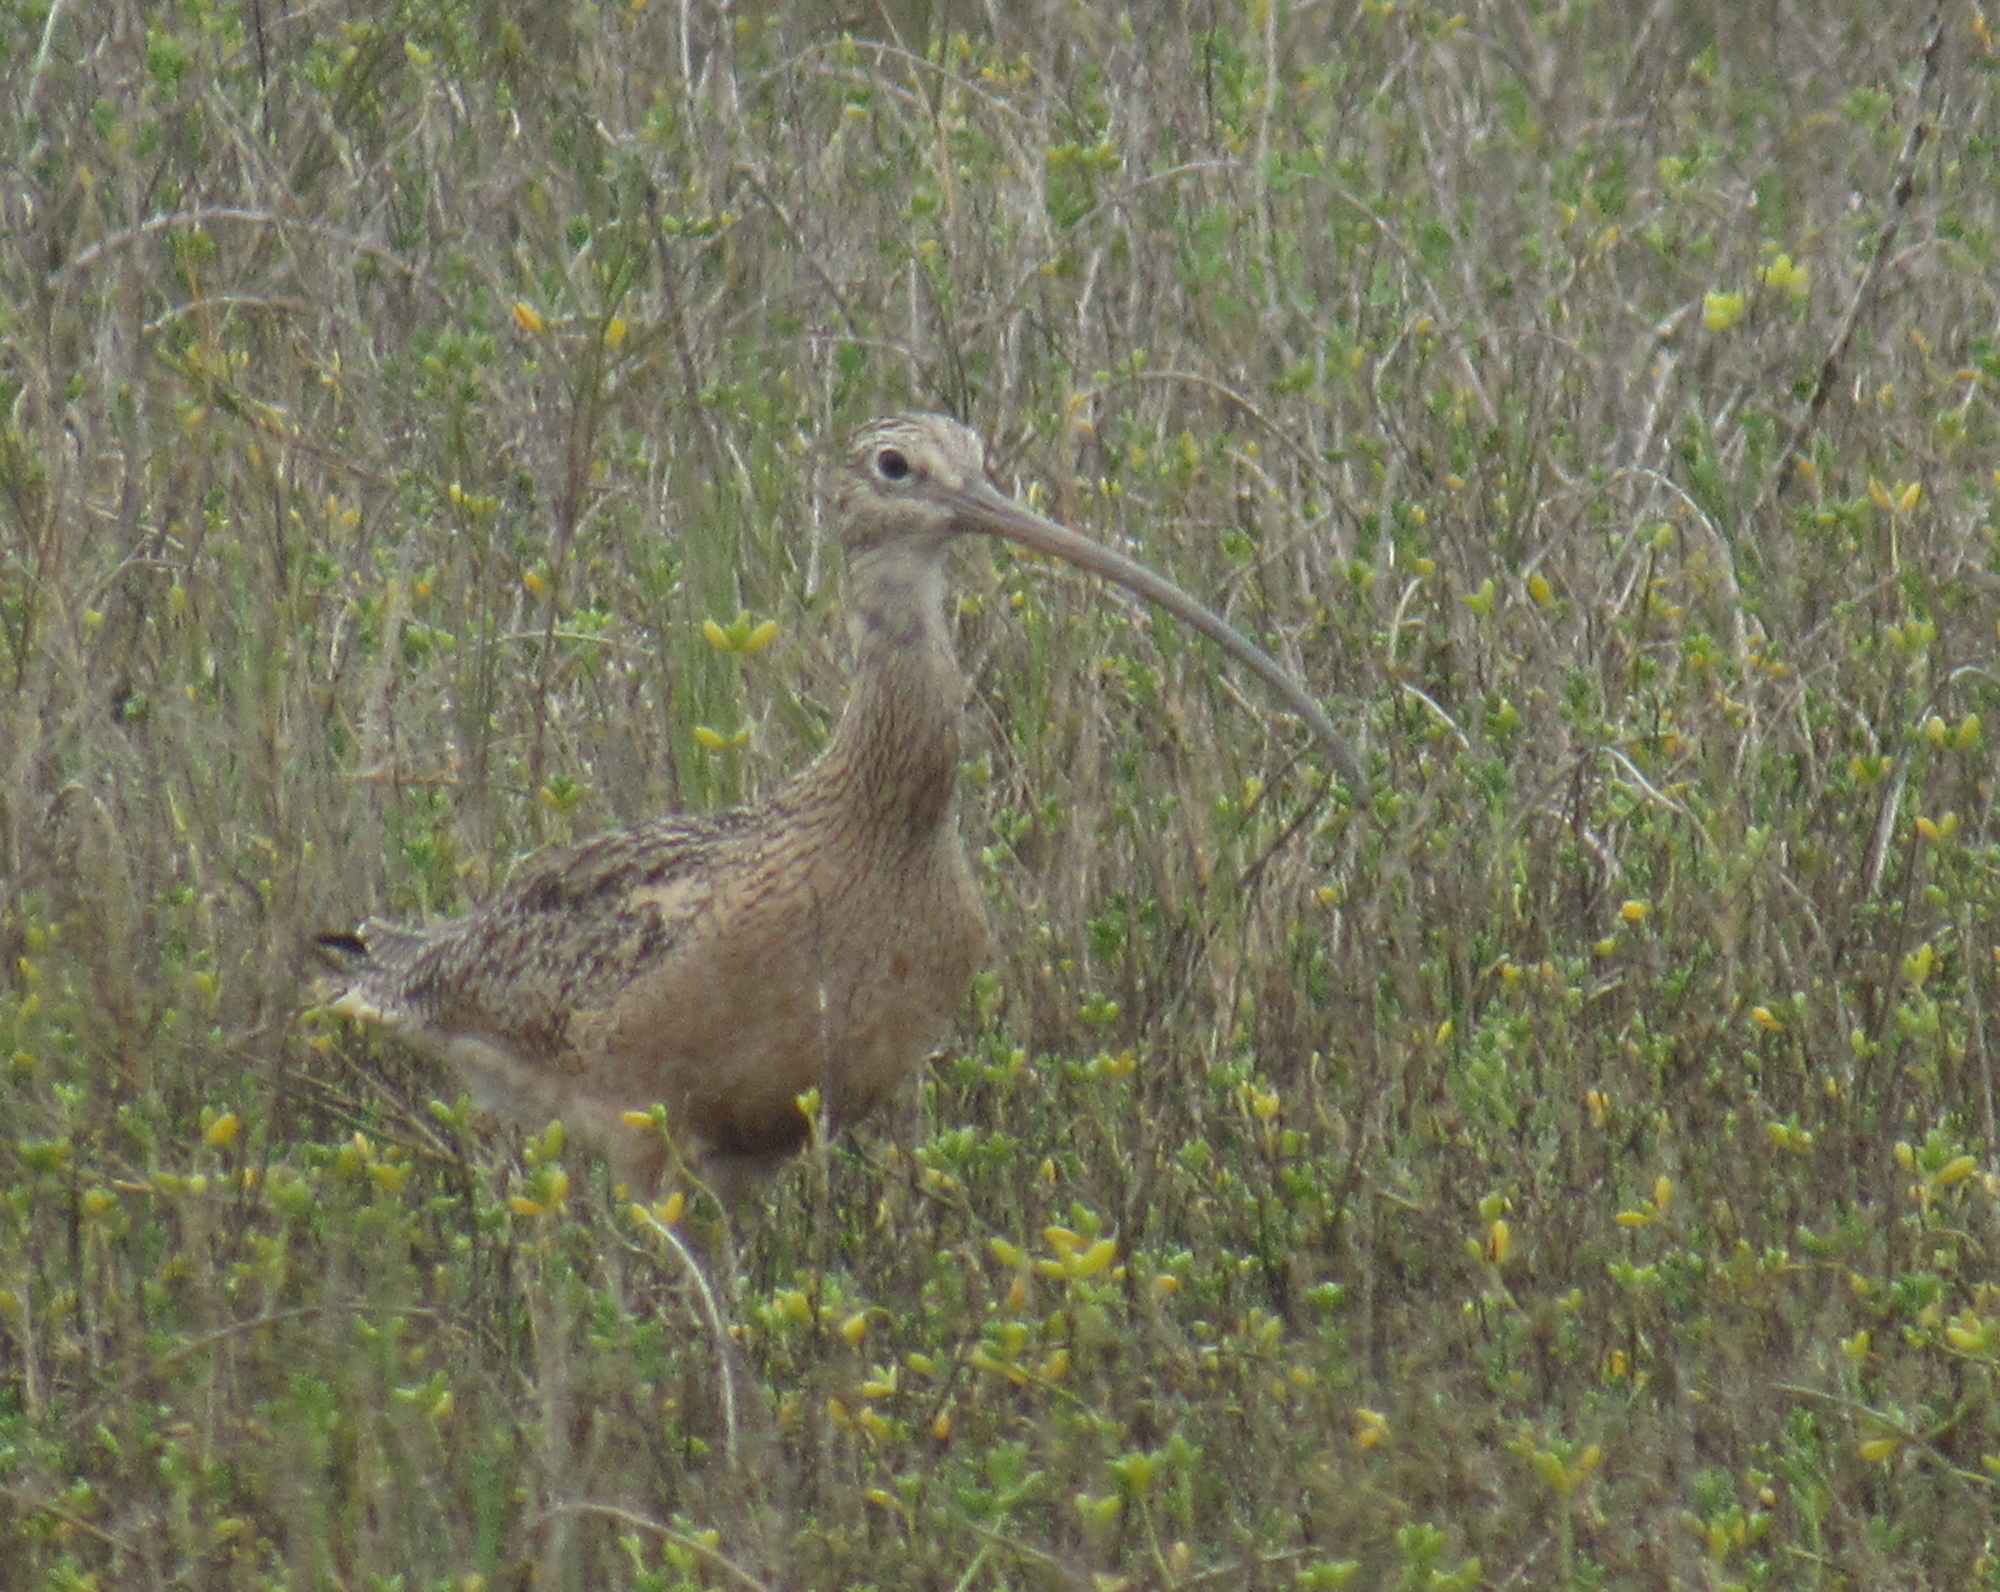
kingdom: Animalia
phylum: Chordata
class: Aves
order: Charadriiformes
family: Scolopacidae
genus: Numenius
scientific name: Numenius americanus
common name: Long-billed curlew
